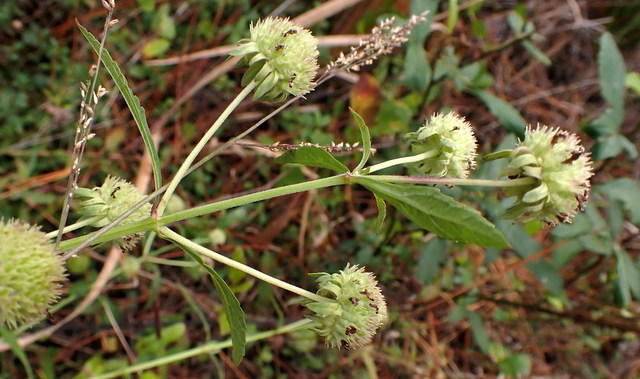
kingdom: Plantae
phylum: Tracheophyta
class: Magnoliopsida
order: Lamiales
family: Lamiaceae
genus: Hyptis
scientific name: Hyptis alata
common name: Cluster bush-mint
